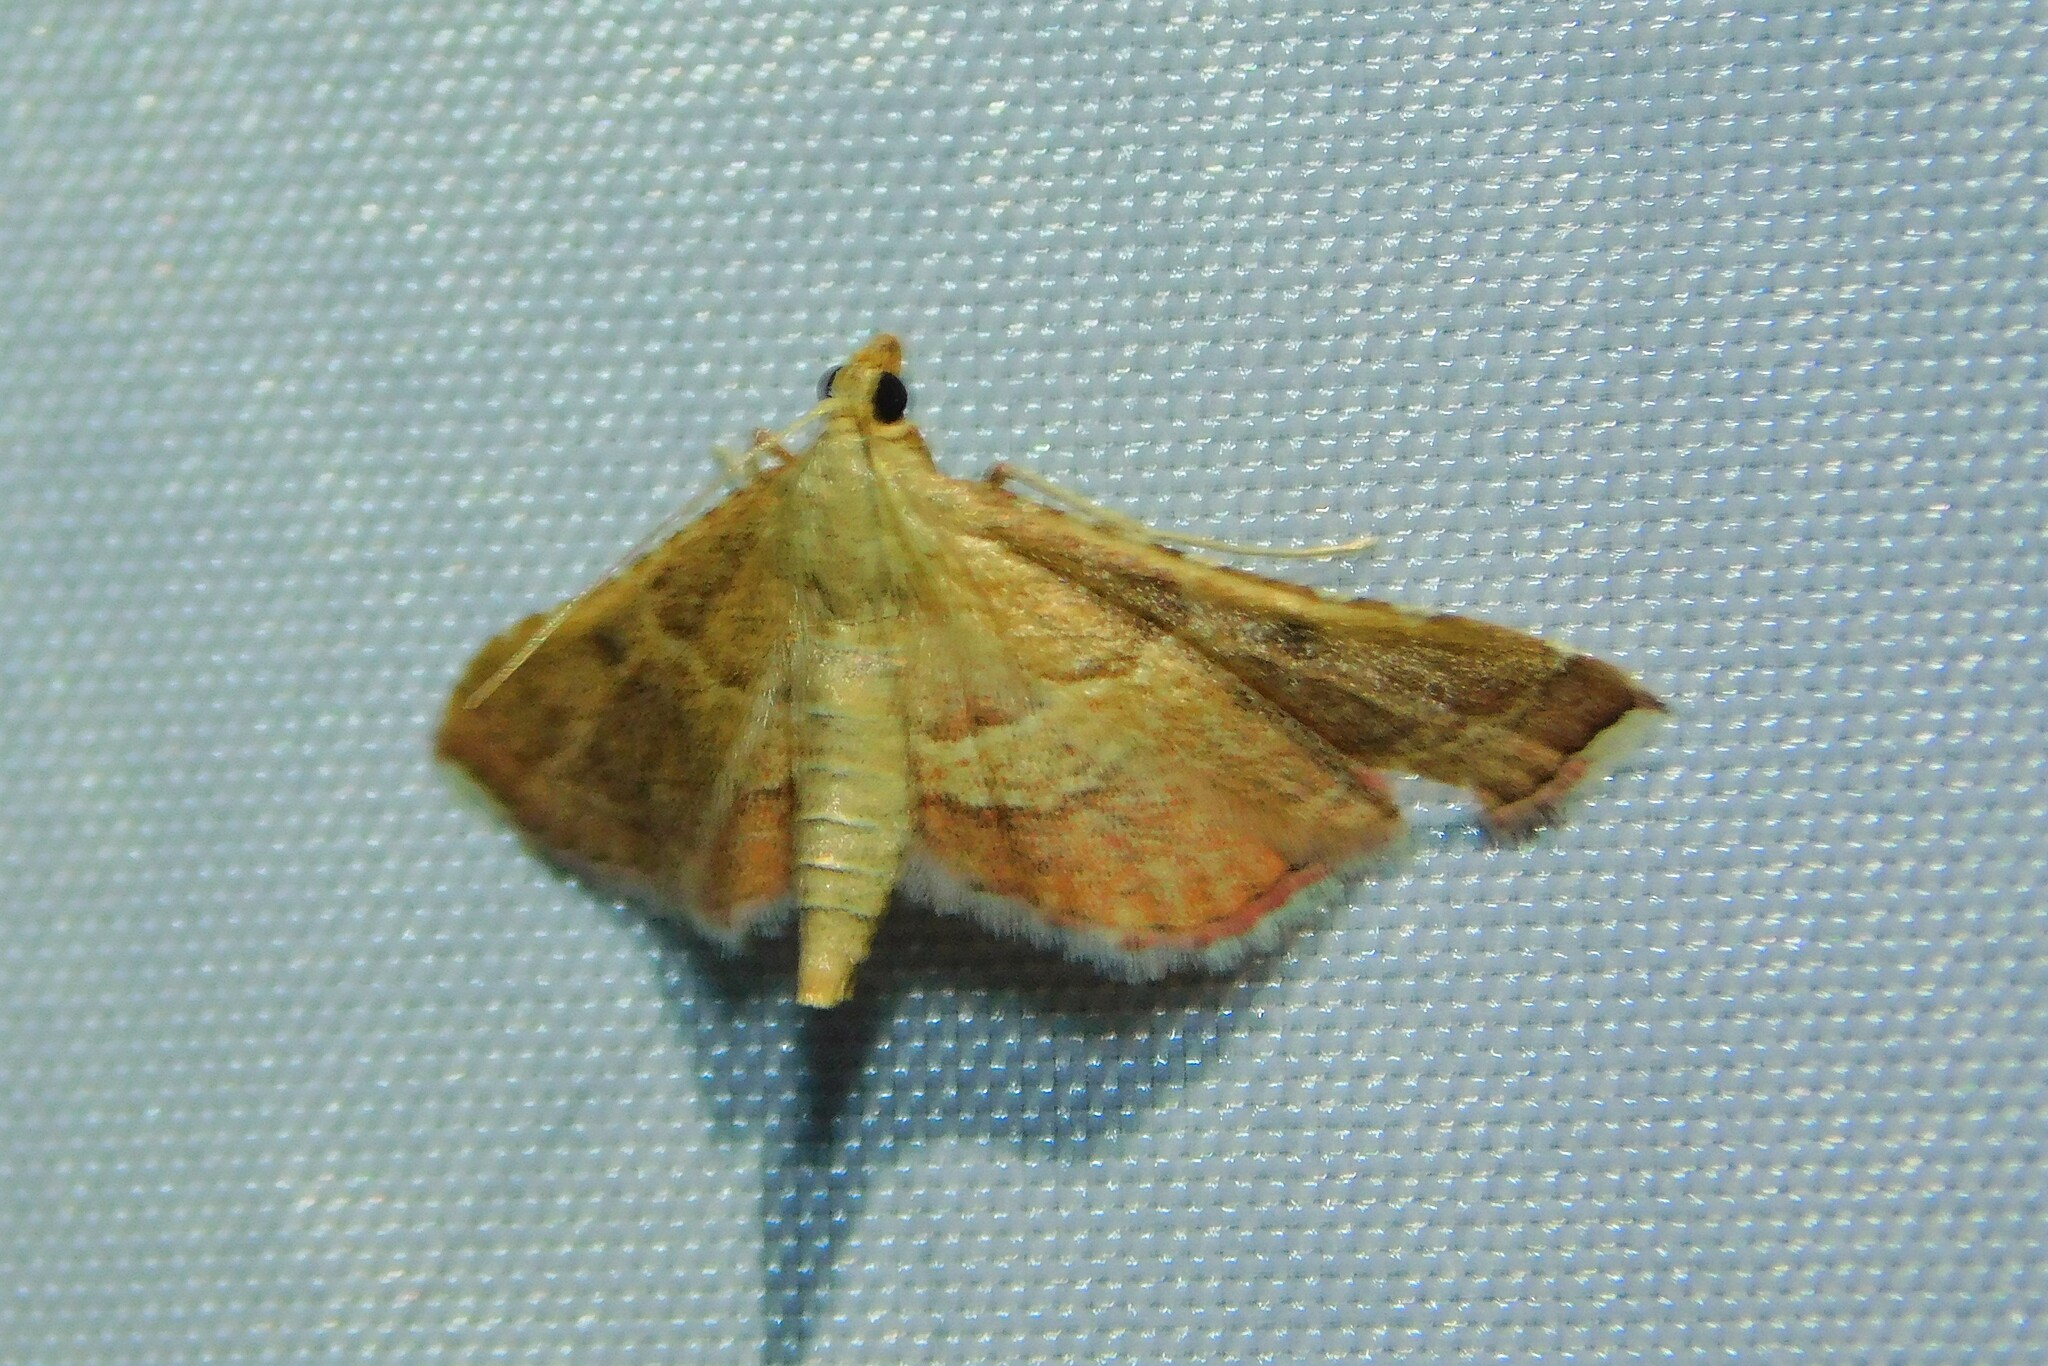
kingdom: Animalia
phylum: Arthropoda
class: Insecta
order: Lepidoptera
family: Pyralidae
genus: Endotricha
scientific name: Endotricha flammealis
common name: Rosy tabby
